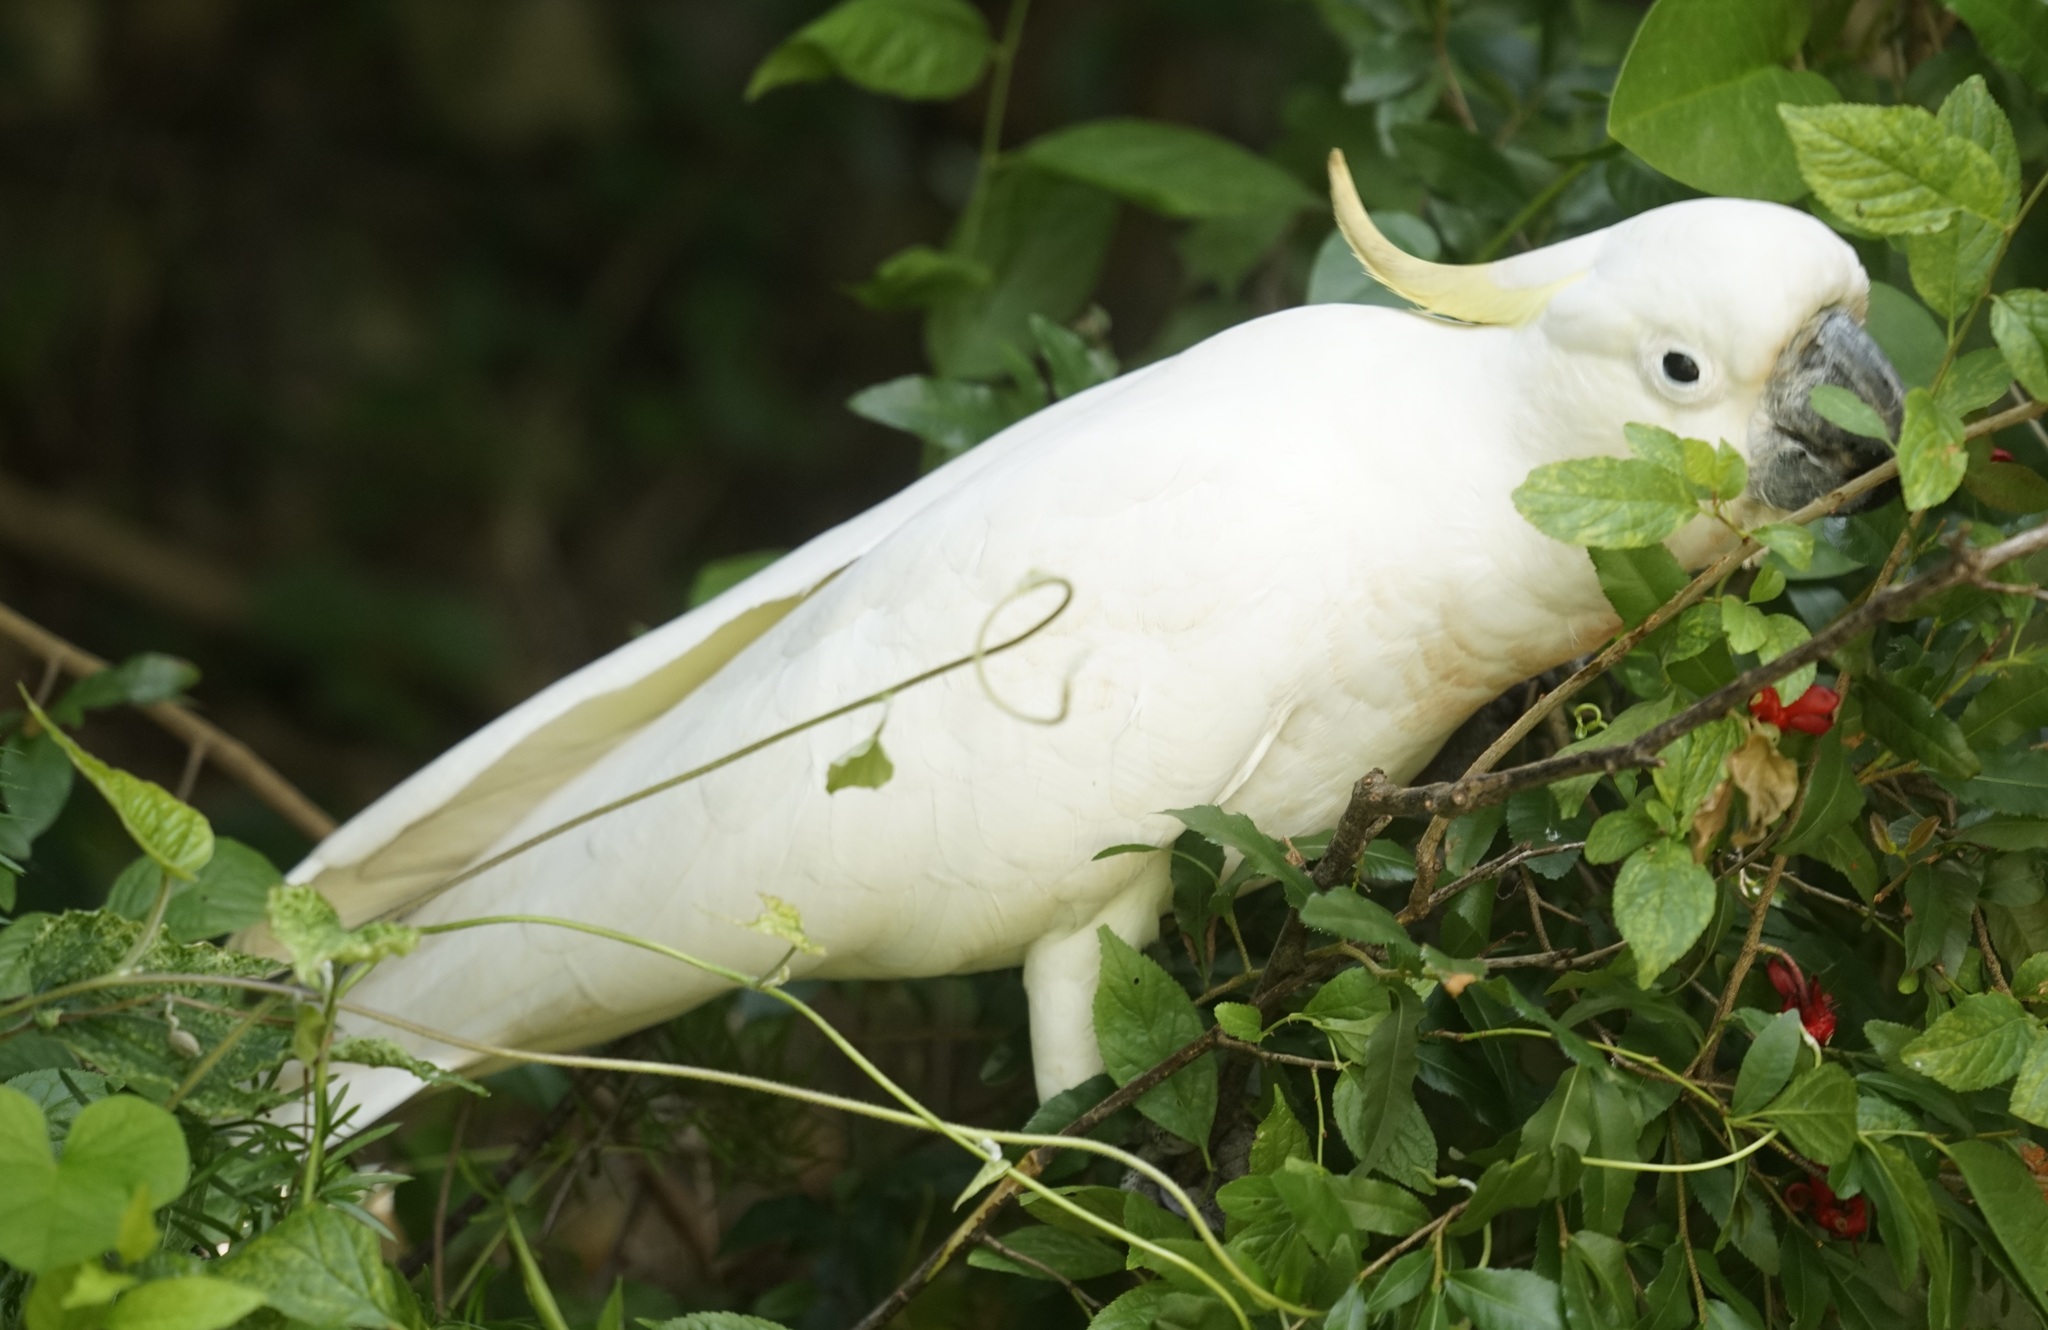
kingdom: Animalia
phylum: Chordata
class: Aves
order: Psittaciformes
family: Psittacidae
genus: Cacatua
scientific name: Cacatua galerita
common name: Sulphur-crested cockatoo
